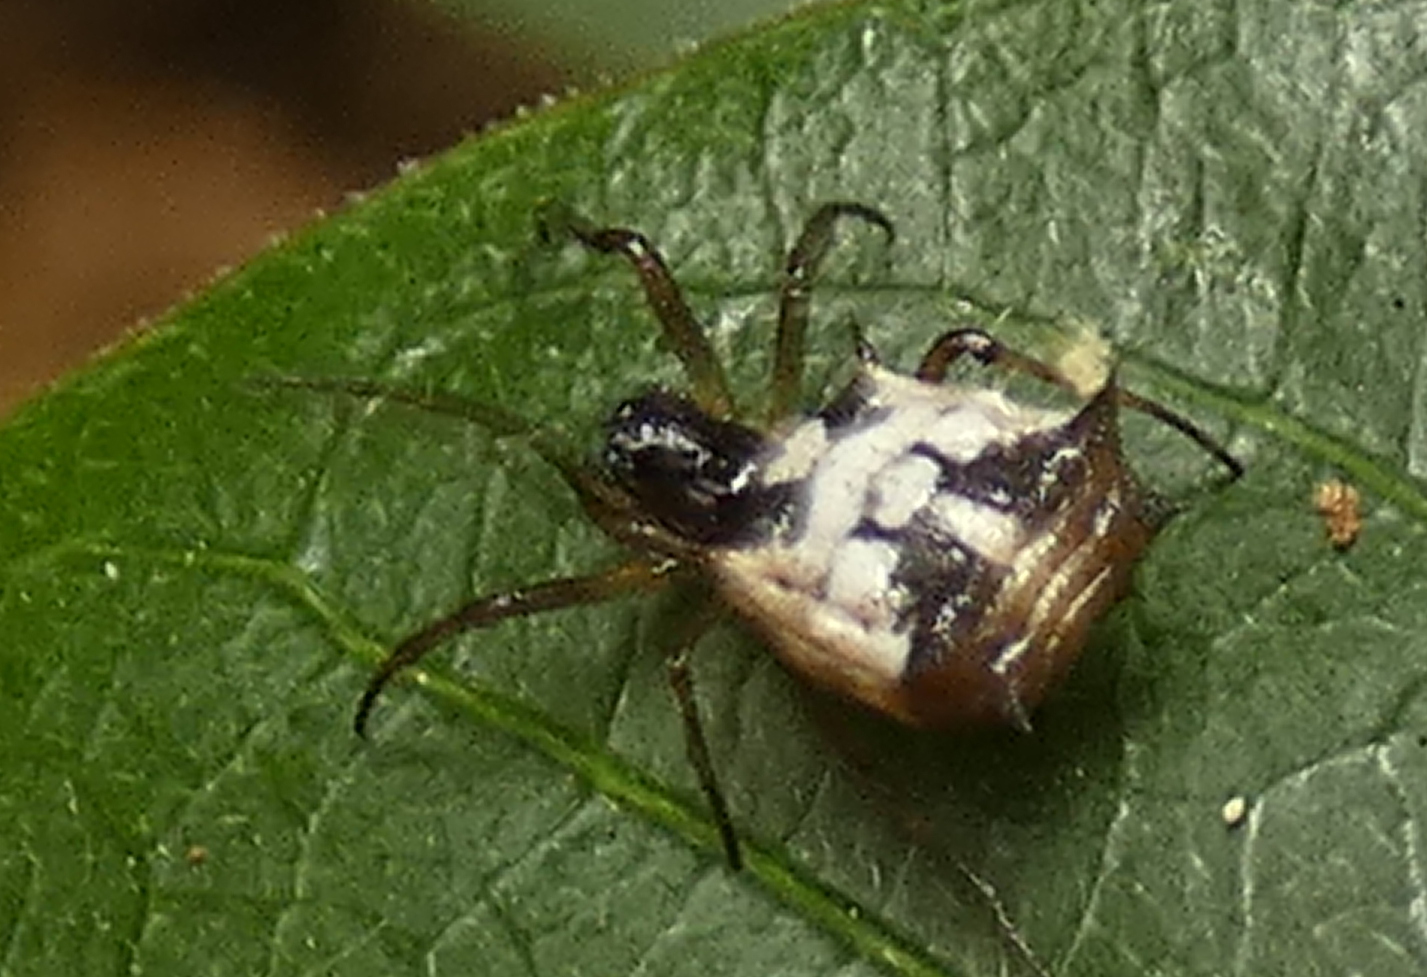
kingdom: Animalia
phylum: Arthropoda
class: Arachnida
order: Araneae
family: Araneidae
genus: Micrathena
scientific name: Micrathena picta
